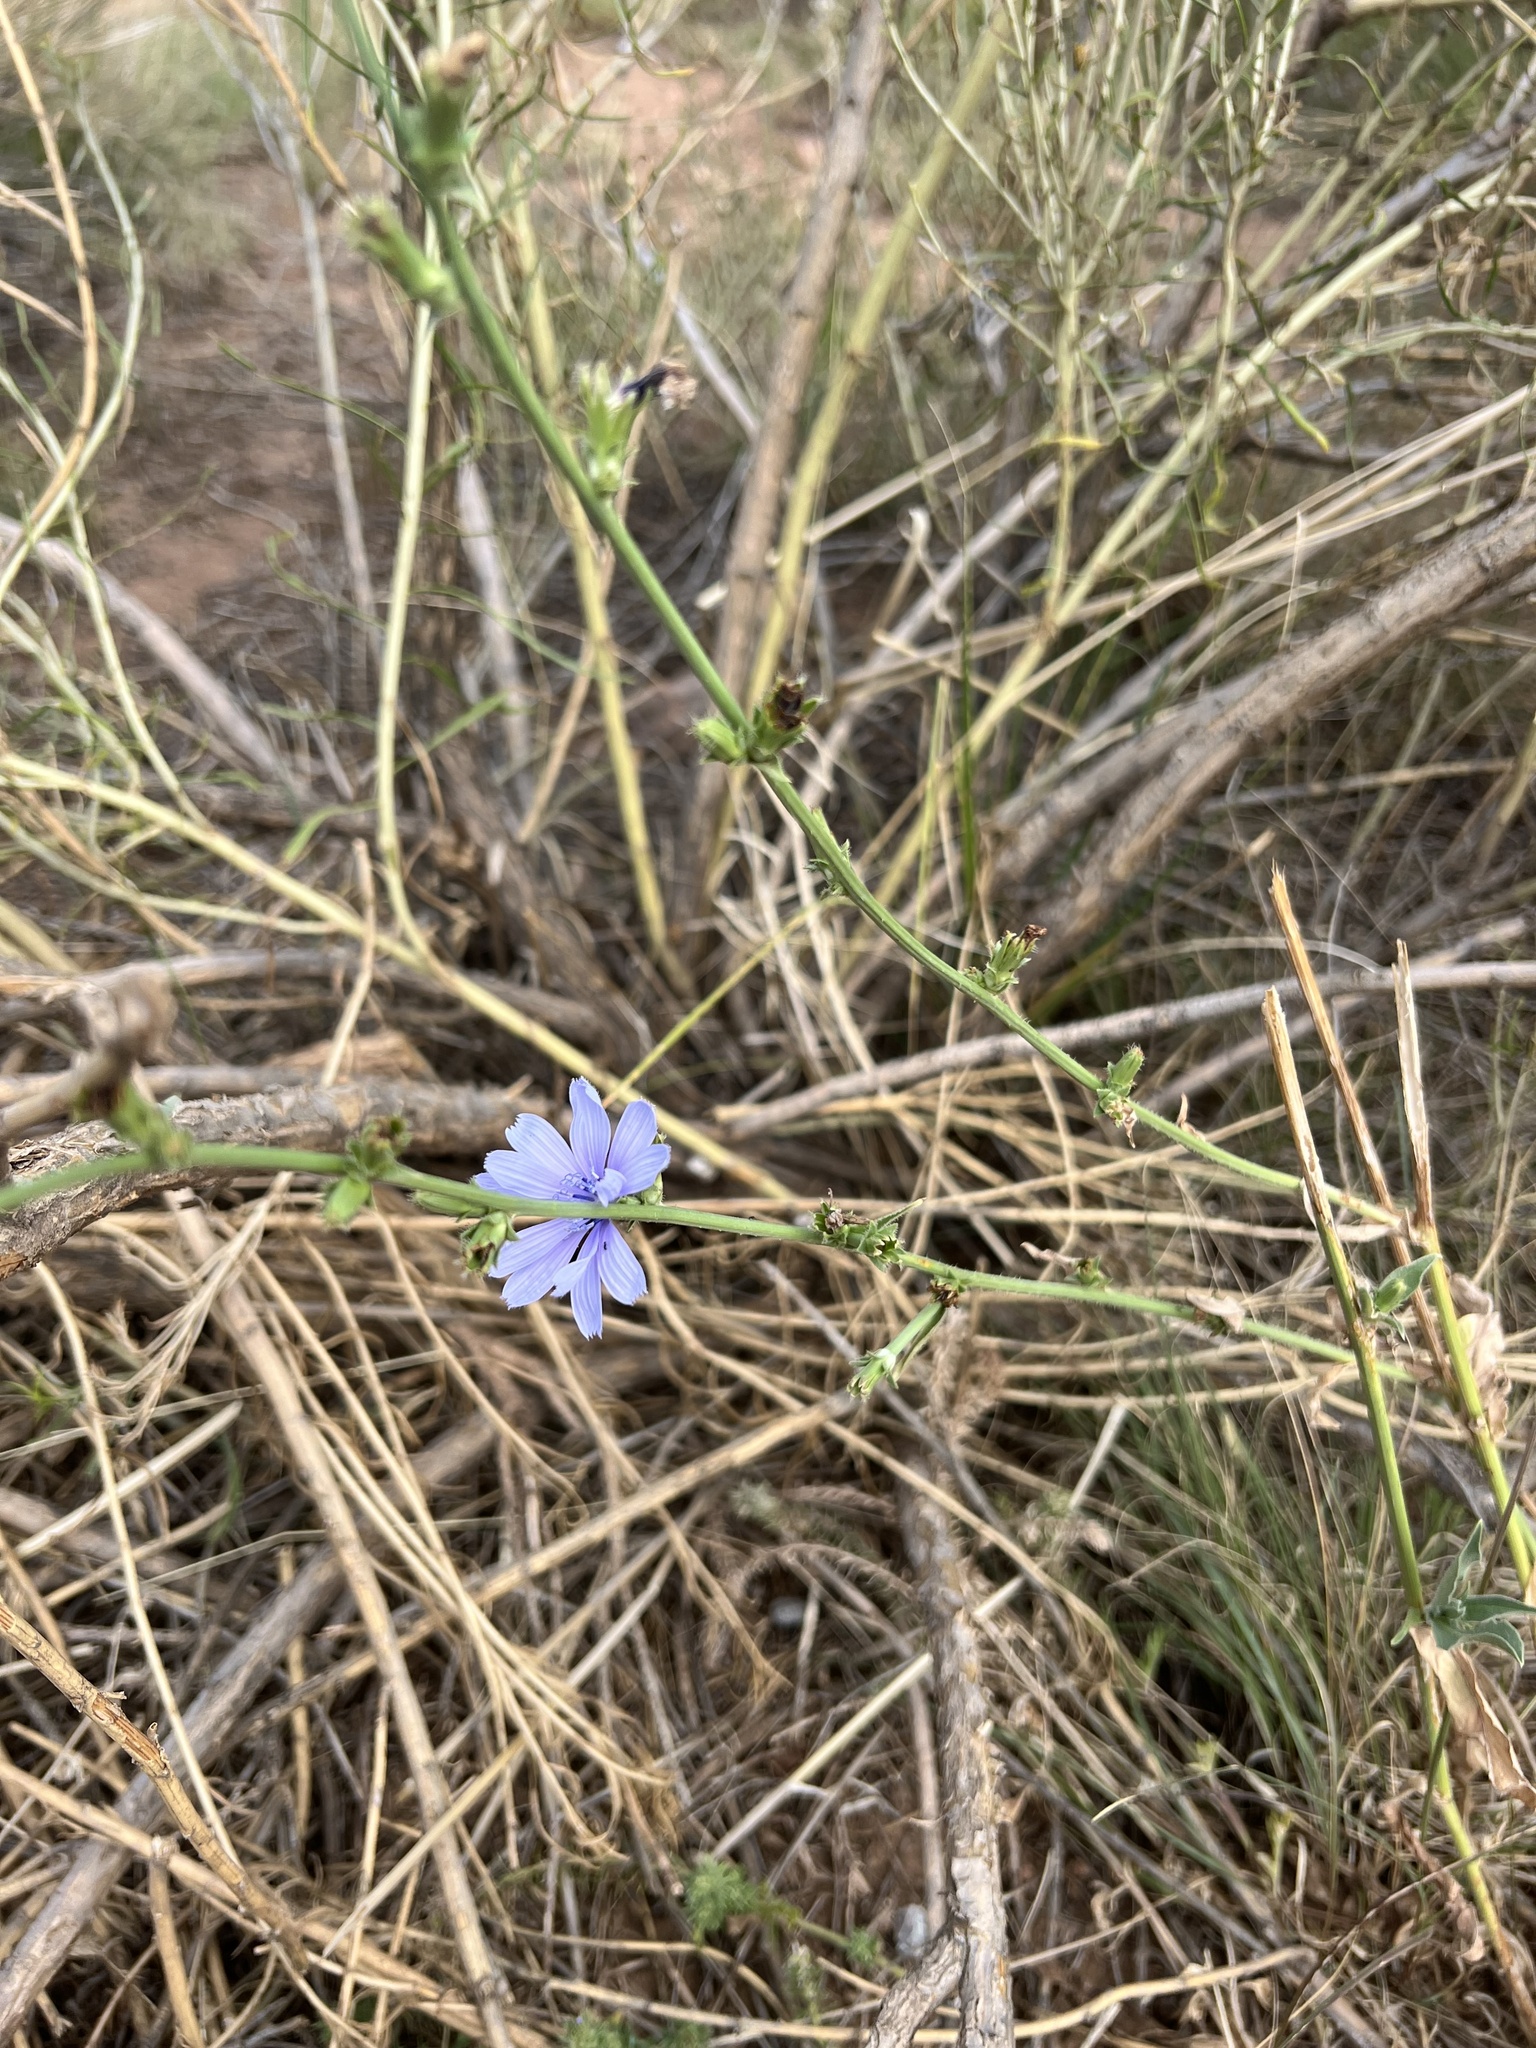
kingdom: Plantae
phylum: Tracheophyta
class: Magnoliopsida
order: Asterales
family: Asteraceae
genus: Cichorium
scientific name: Cichorium intybus
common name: Chicory
